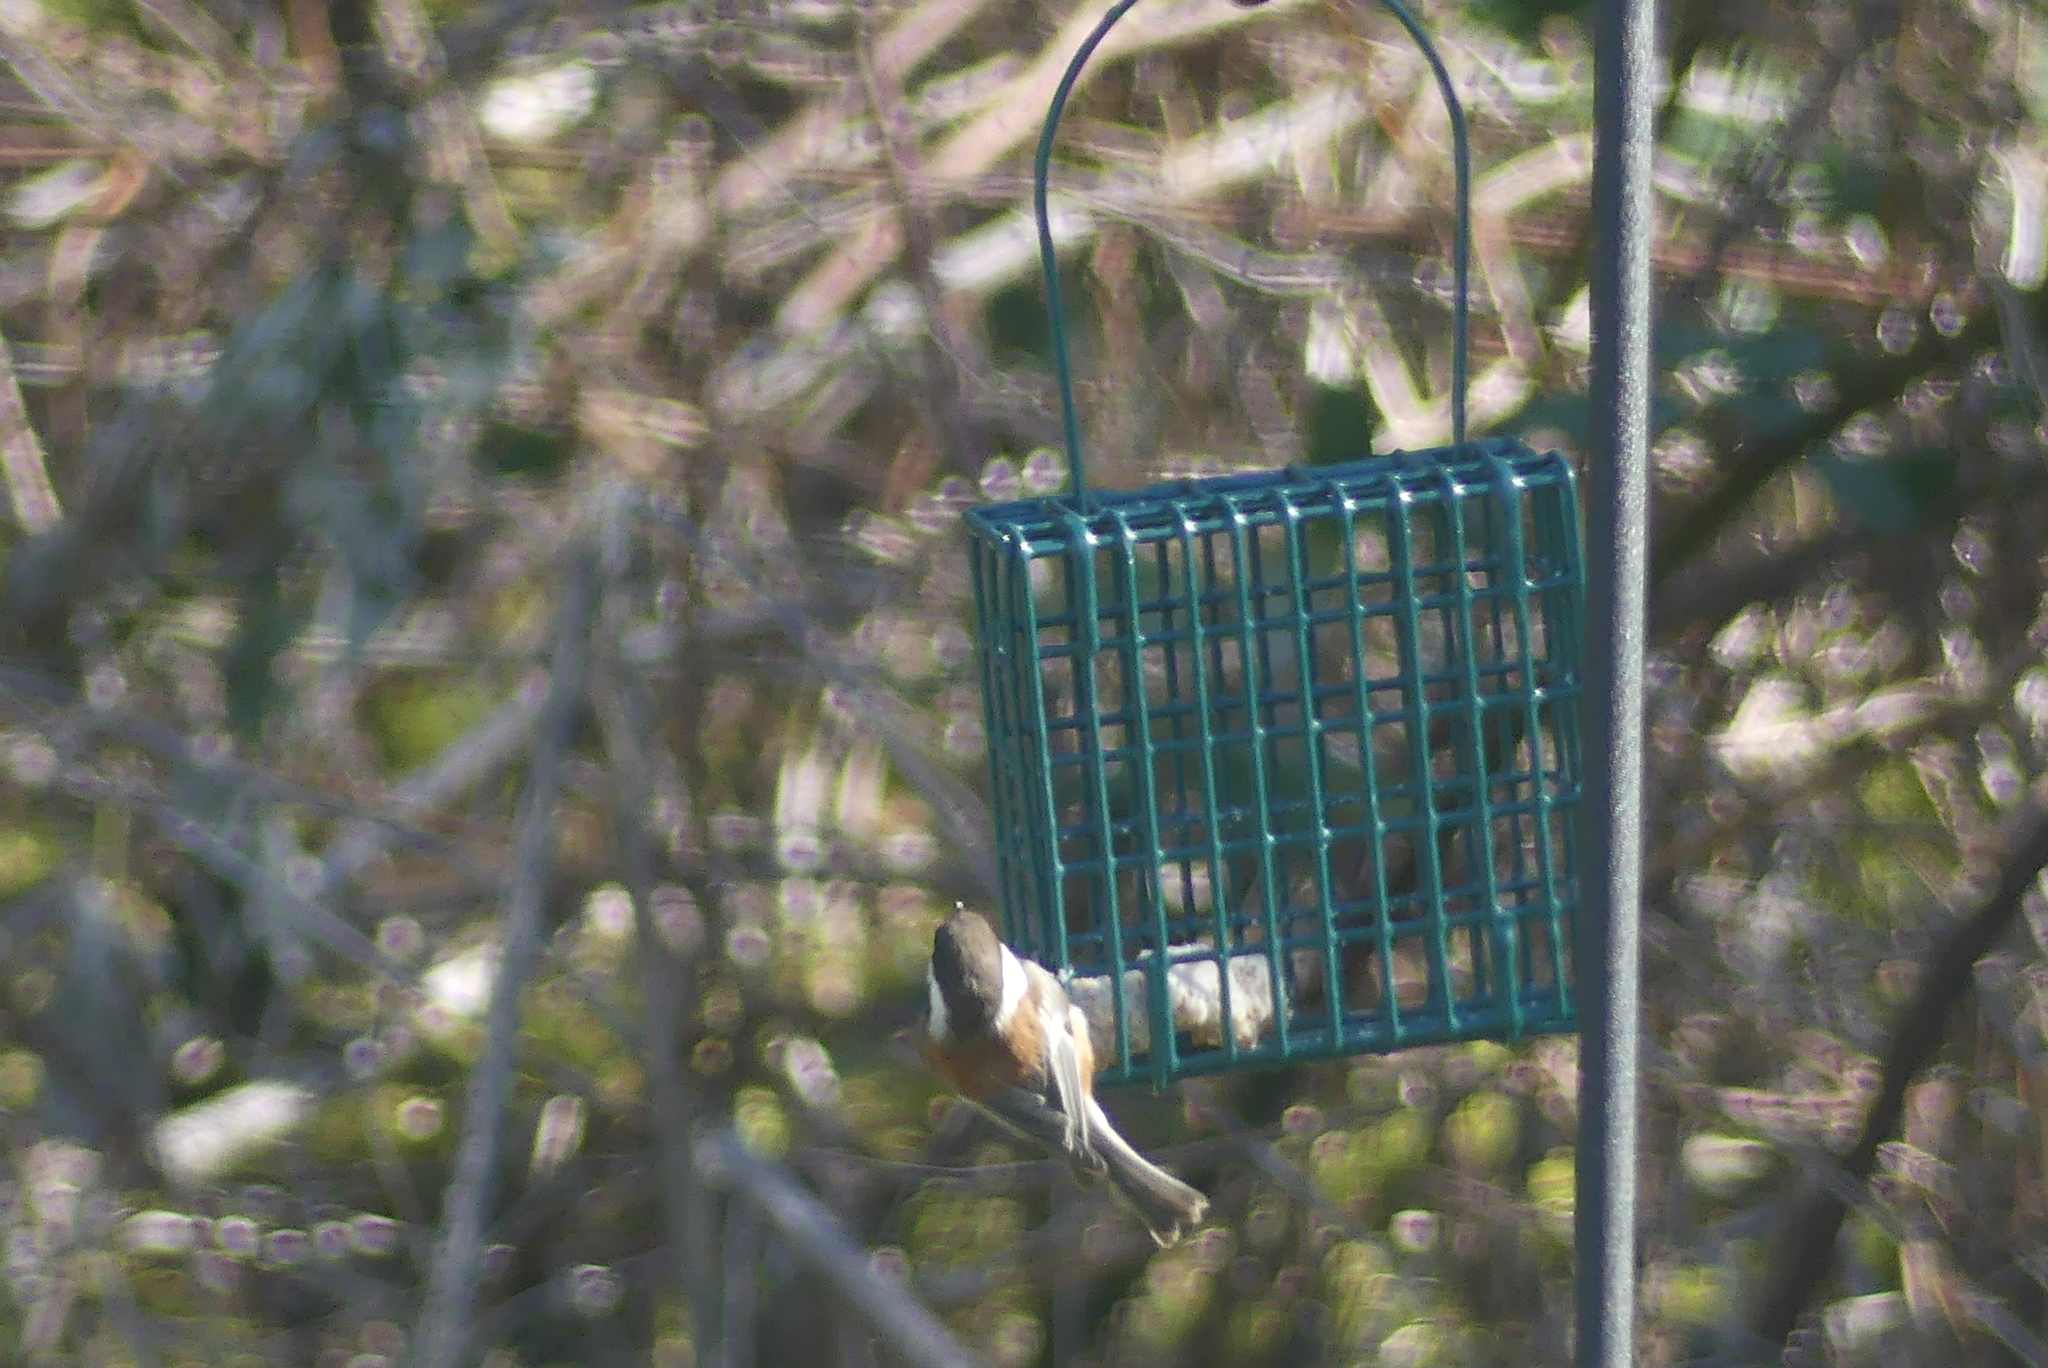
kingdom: Animalia
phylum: Chordata
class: Aves
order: Passeriformes
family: Paridae
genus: Poecile
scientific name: Poecile rufescens
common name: Chestnut-backed chickadee
